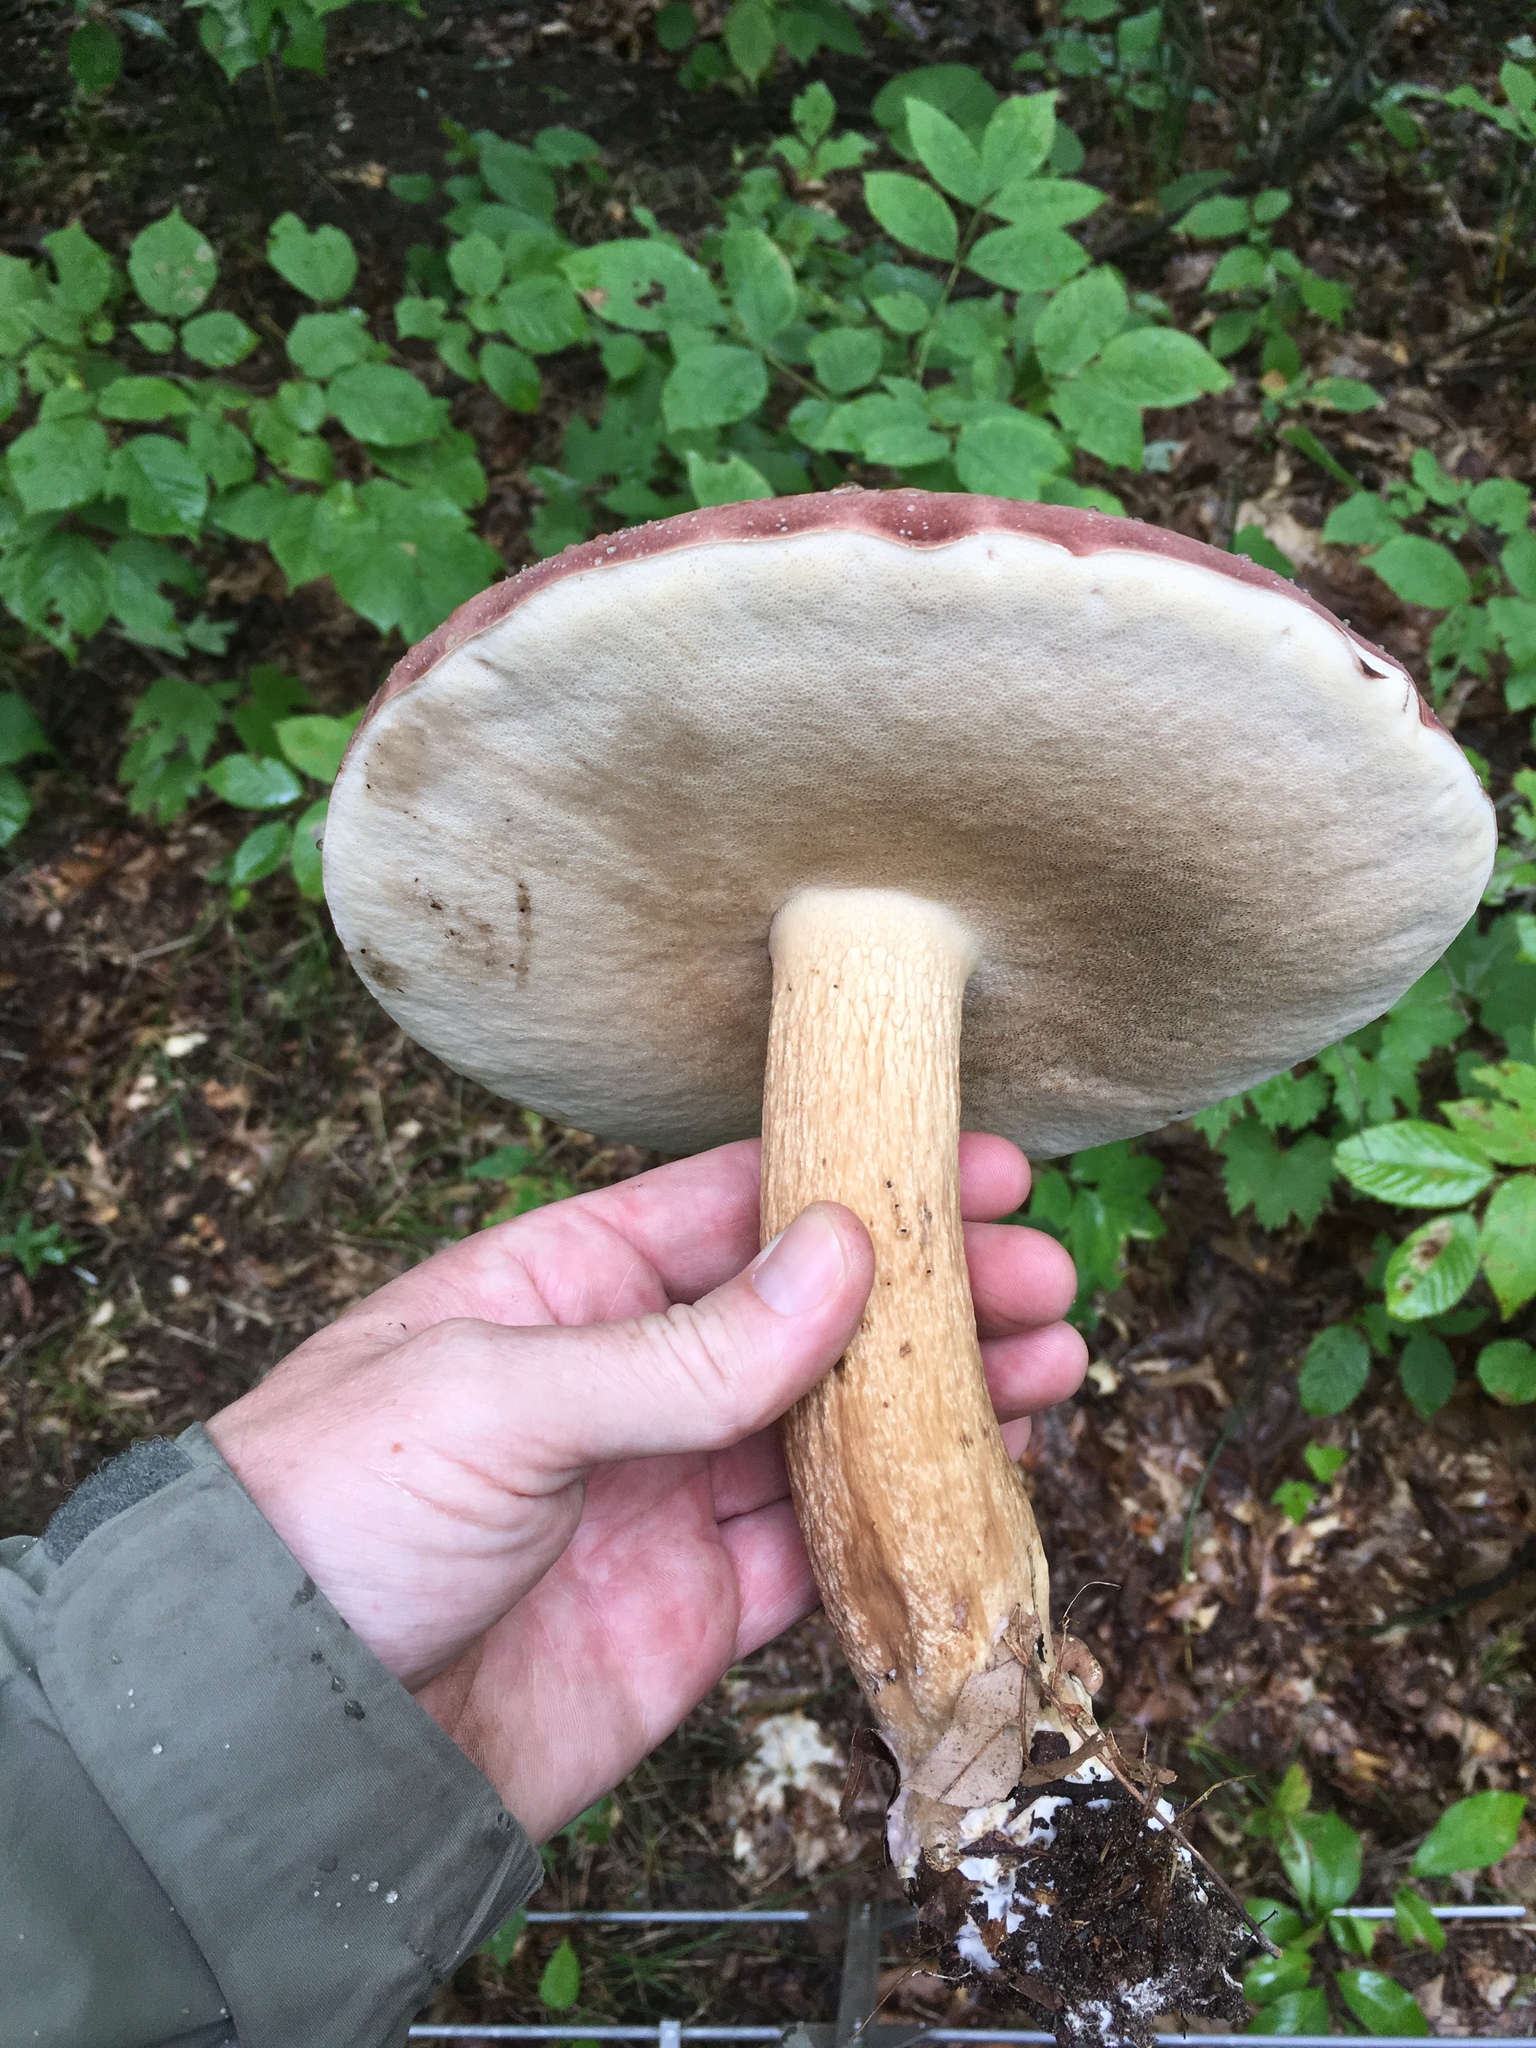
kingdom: Fungi
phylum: Basidiomycota
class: Agaricomycetes
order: Boletales
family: Boletaceae
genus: Tylopilus
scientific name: Tylopilus rubrobrunneus
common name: Reddish brown bitter bolete
